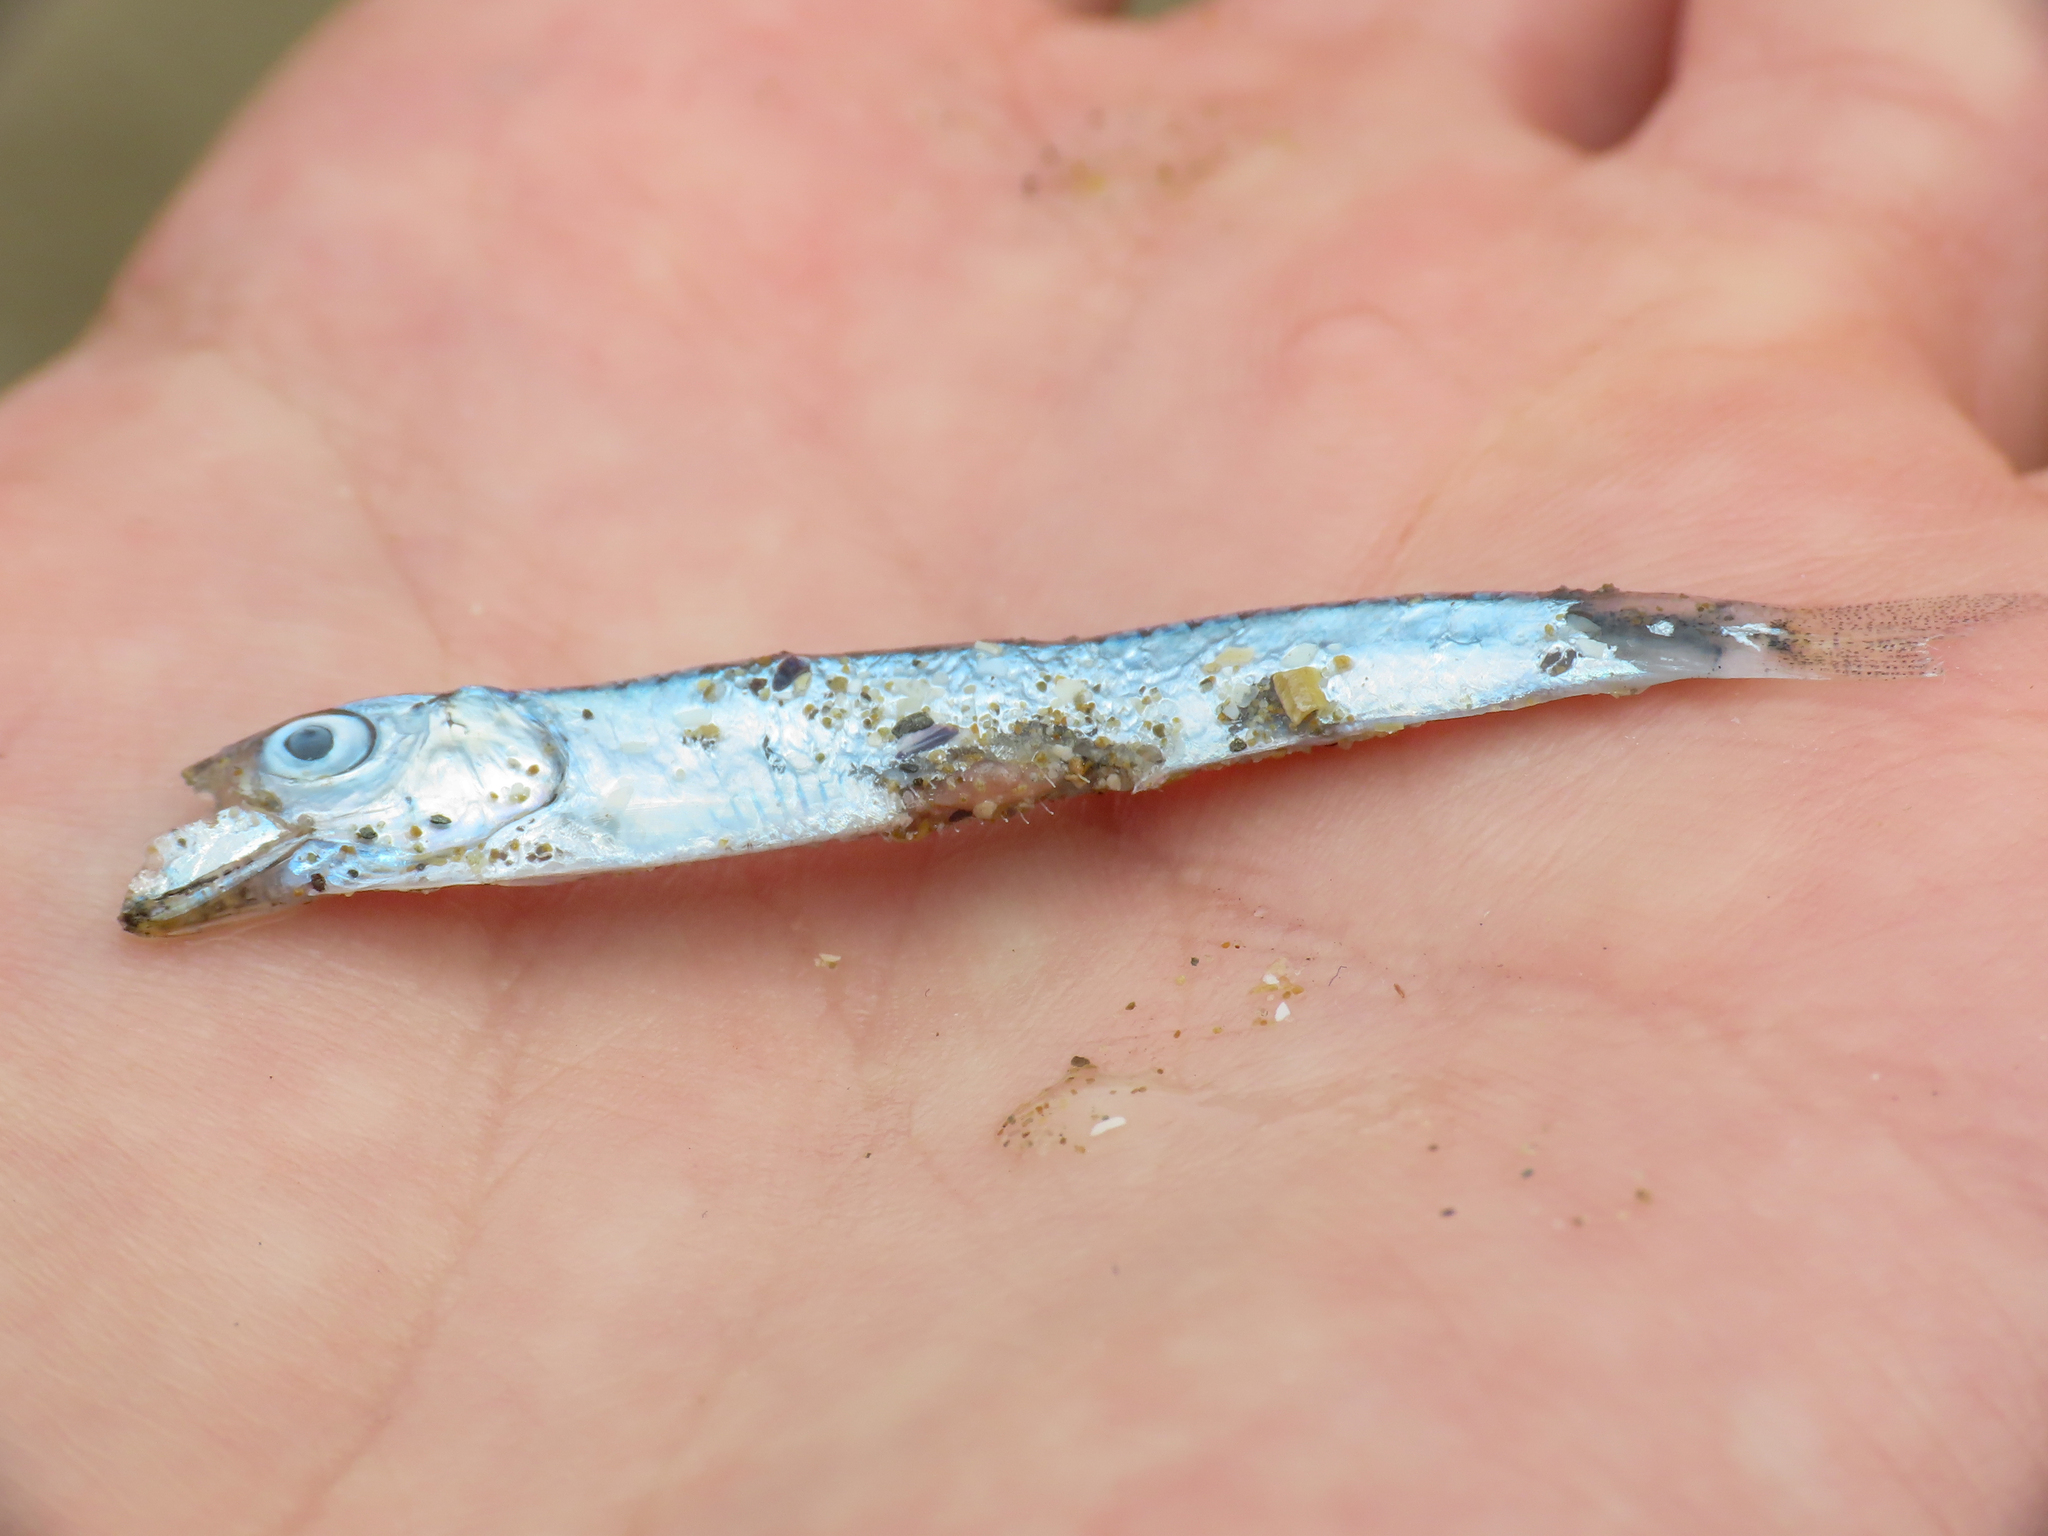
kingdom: Animalia
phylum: Chordata
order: Clupeiformes
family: Clupeidae
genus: Sardina
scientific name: Sardina pilchardus
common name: Pilchard
